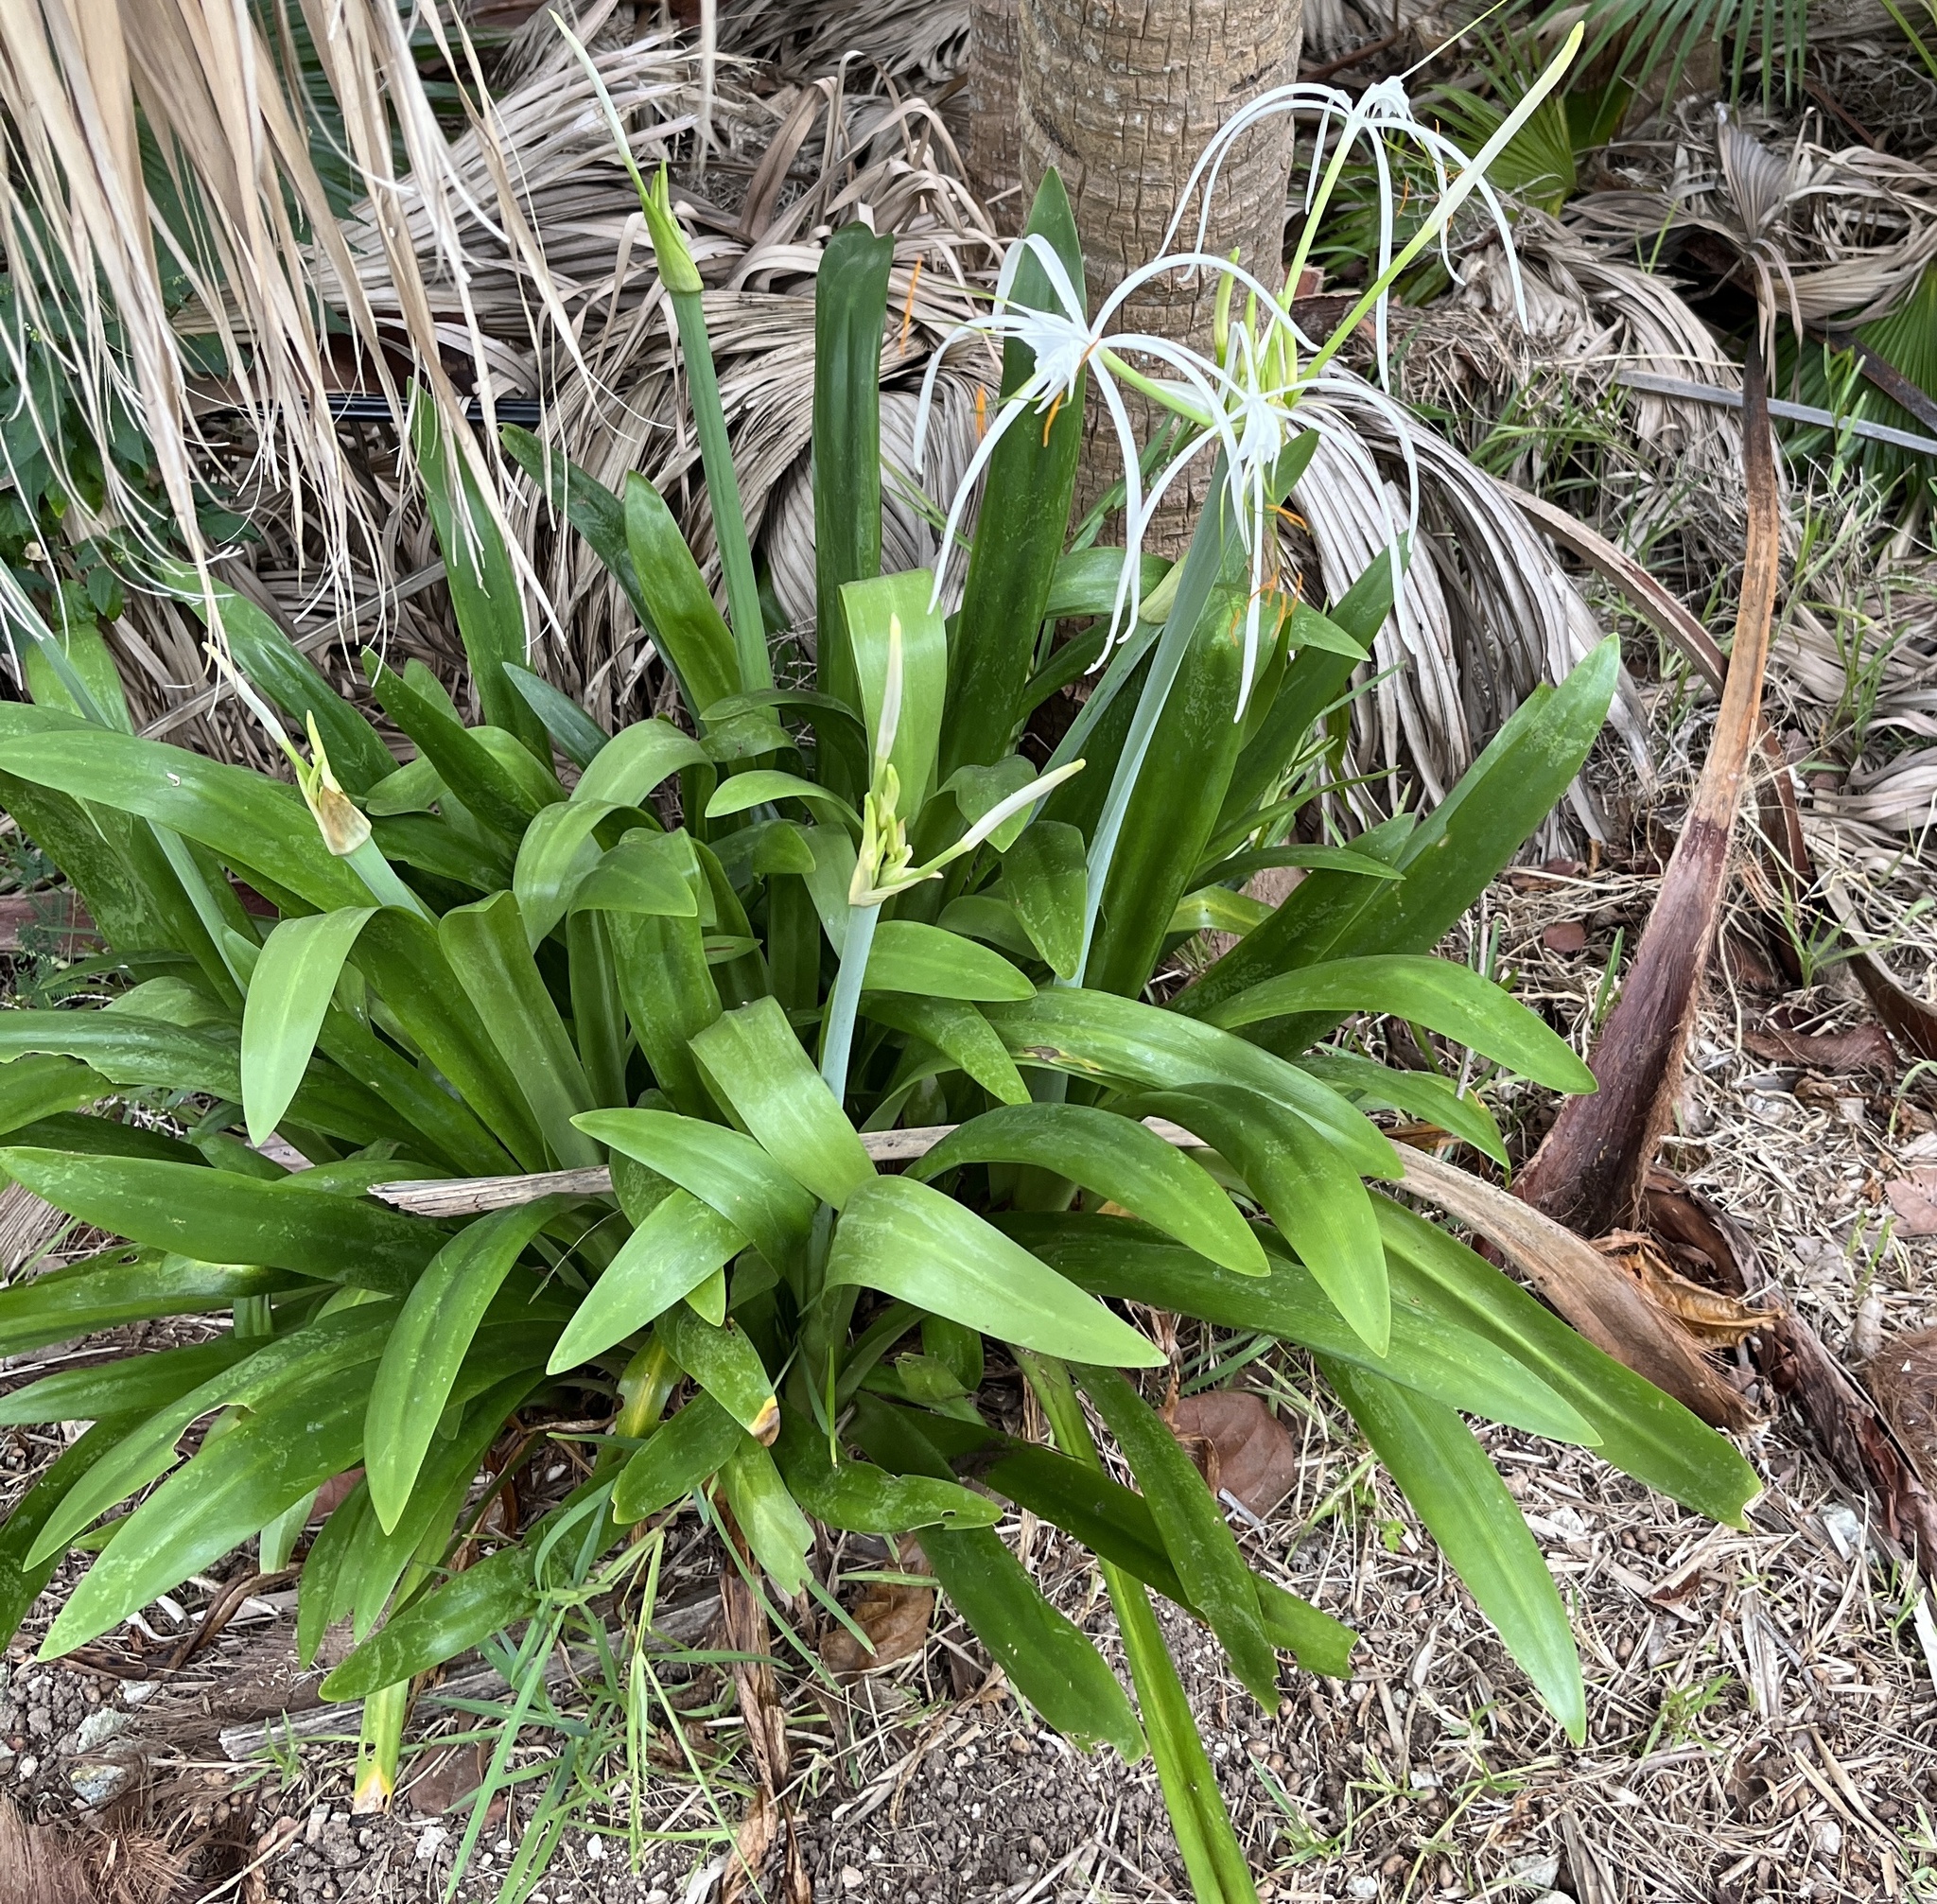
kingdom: Plantae
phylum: Tracheophyta
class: Liliopsida
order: Asparagales
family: Amaryllidaceae
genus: Hymenocallis
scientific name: Hymenocallis littoralis
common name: Beach spiderlily
